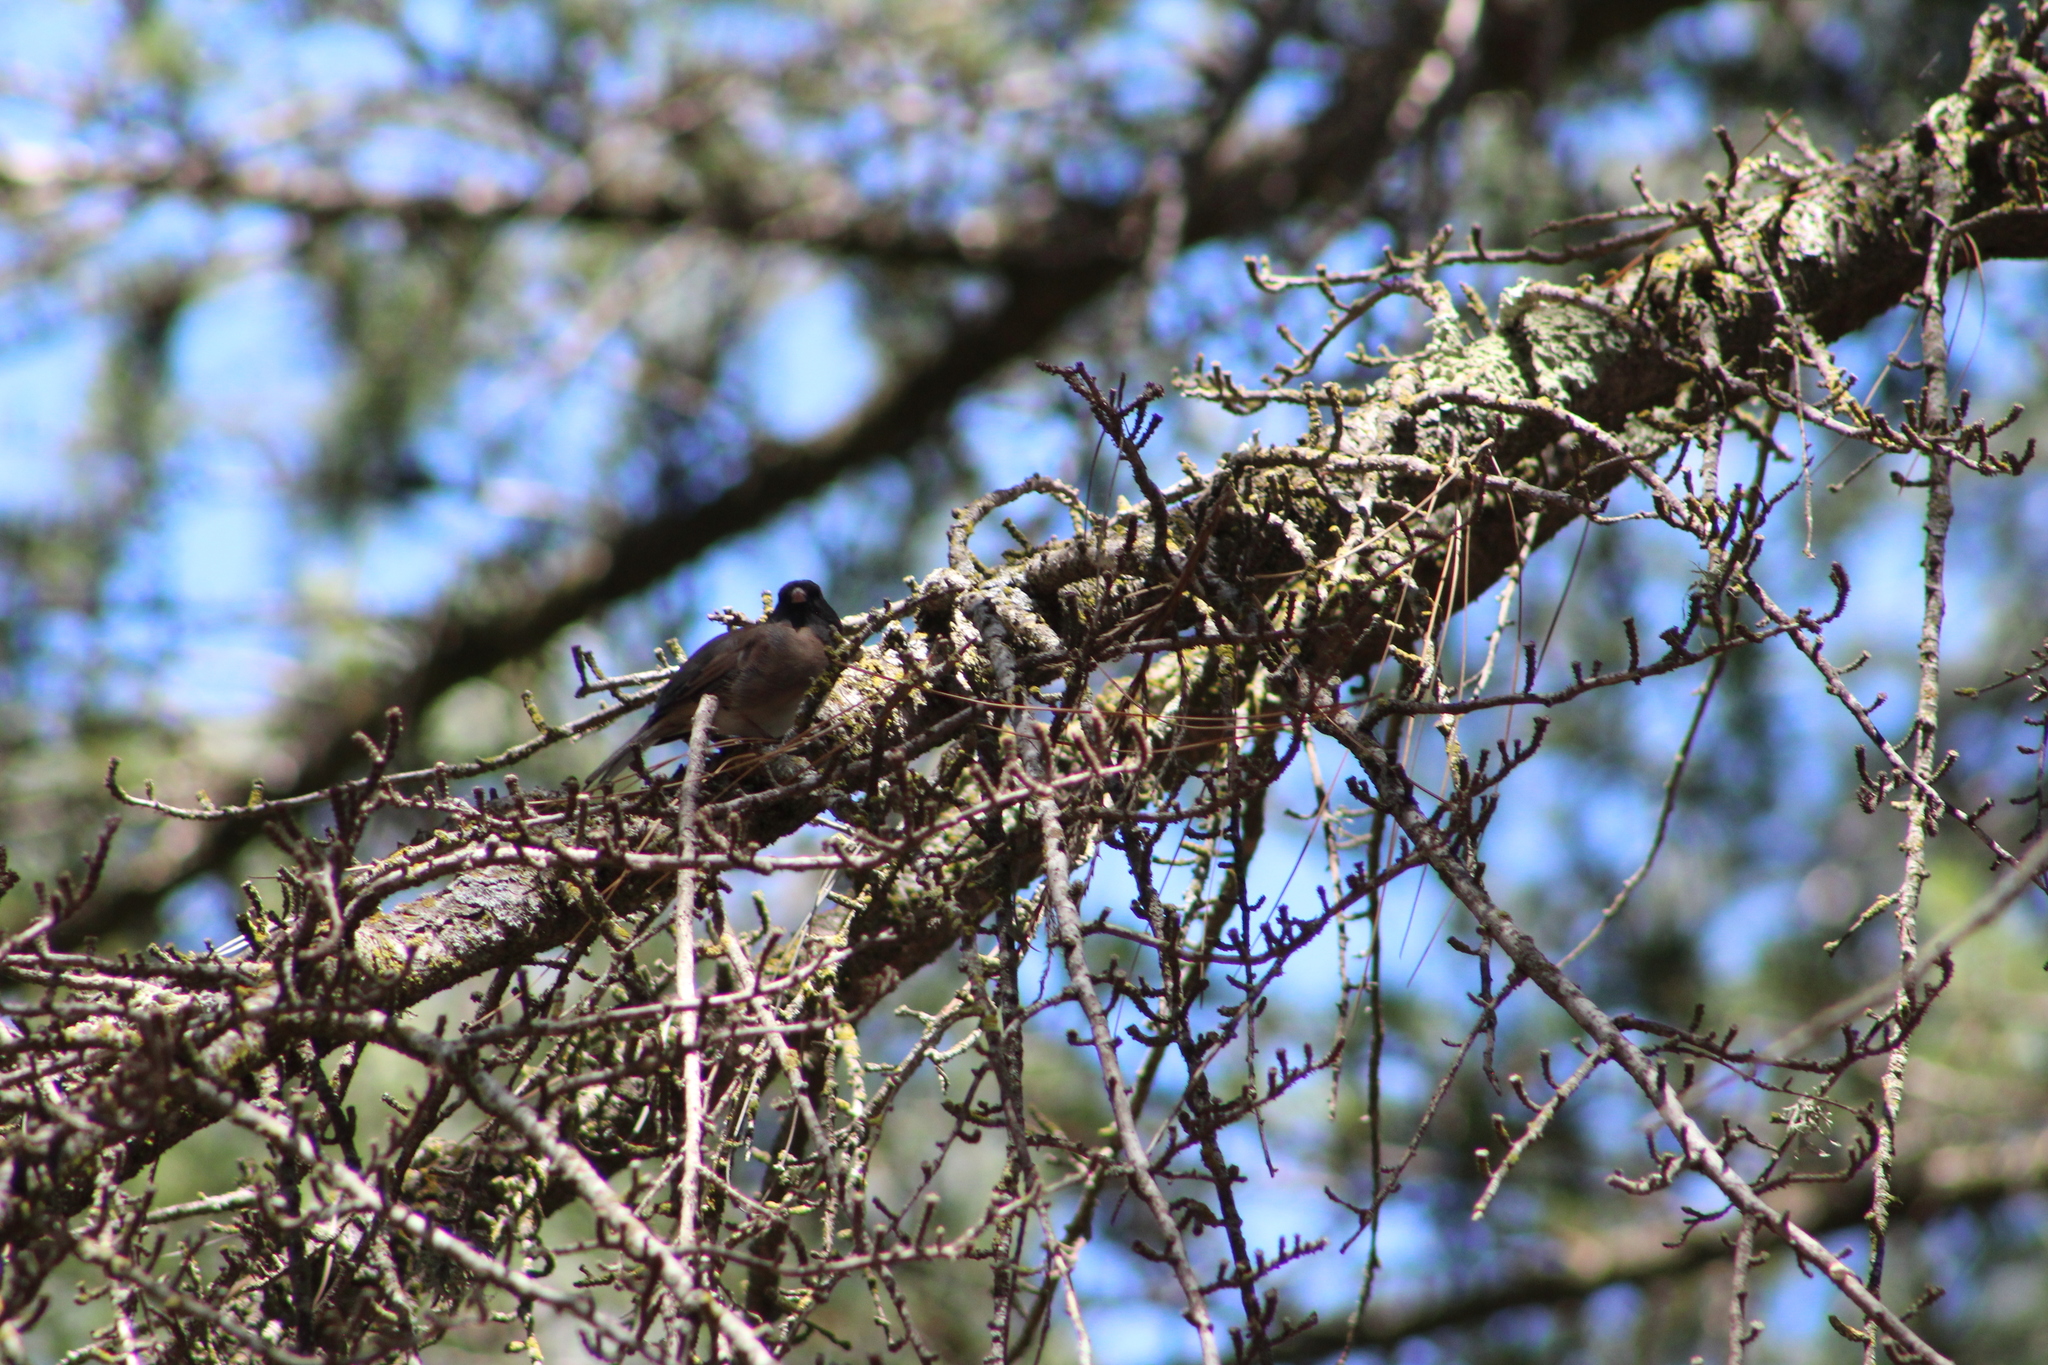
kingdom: Animalia
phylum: Chordata
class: Aves
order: Passeriformes
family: Passerellidae
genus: Junco
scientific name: Junco hyemalis
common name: Dark-eyed junco
